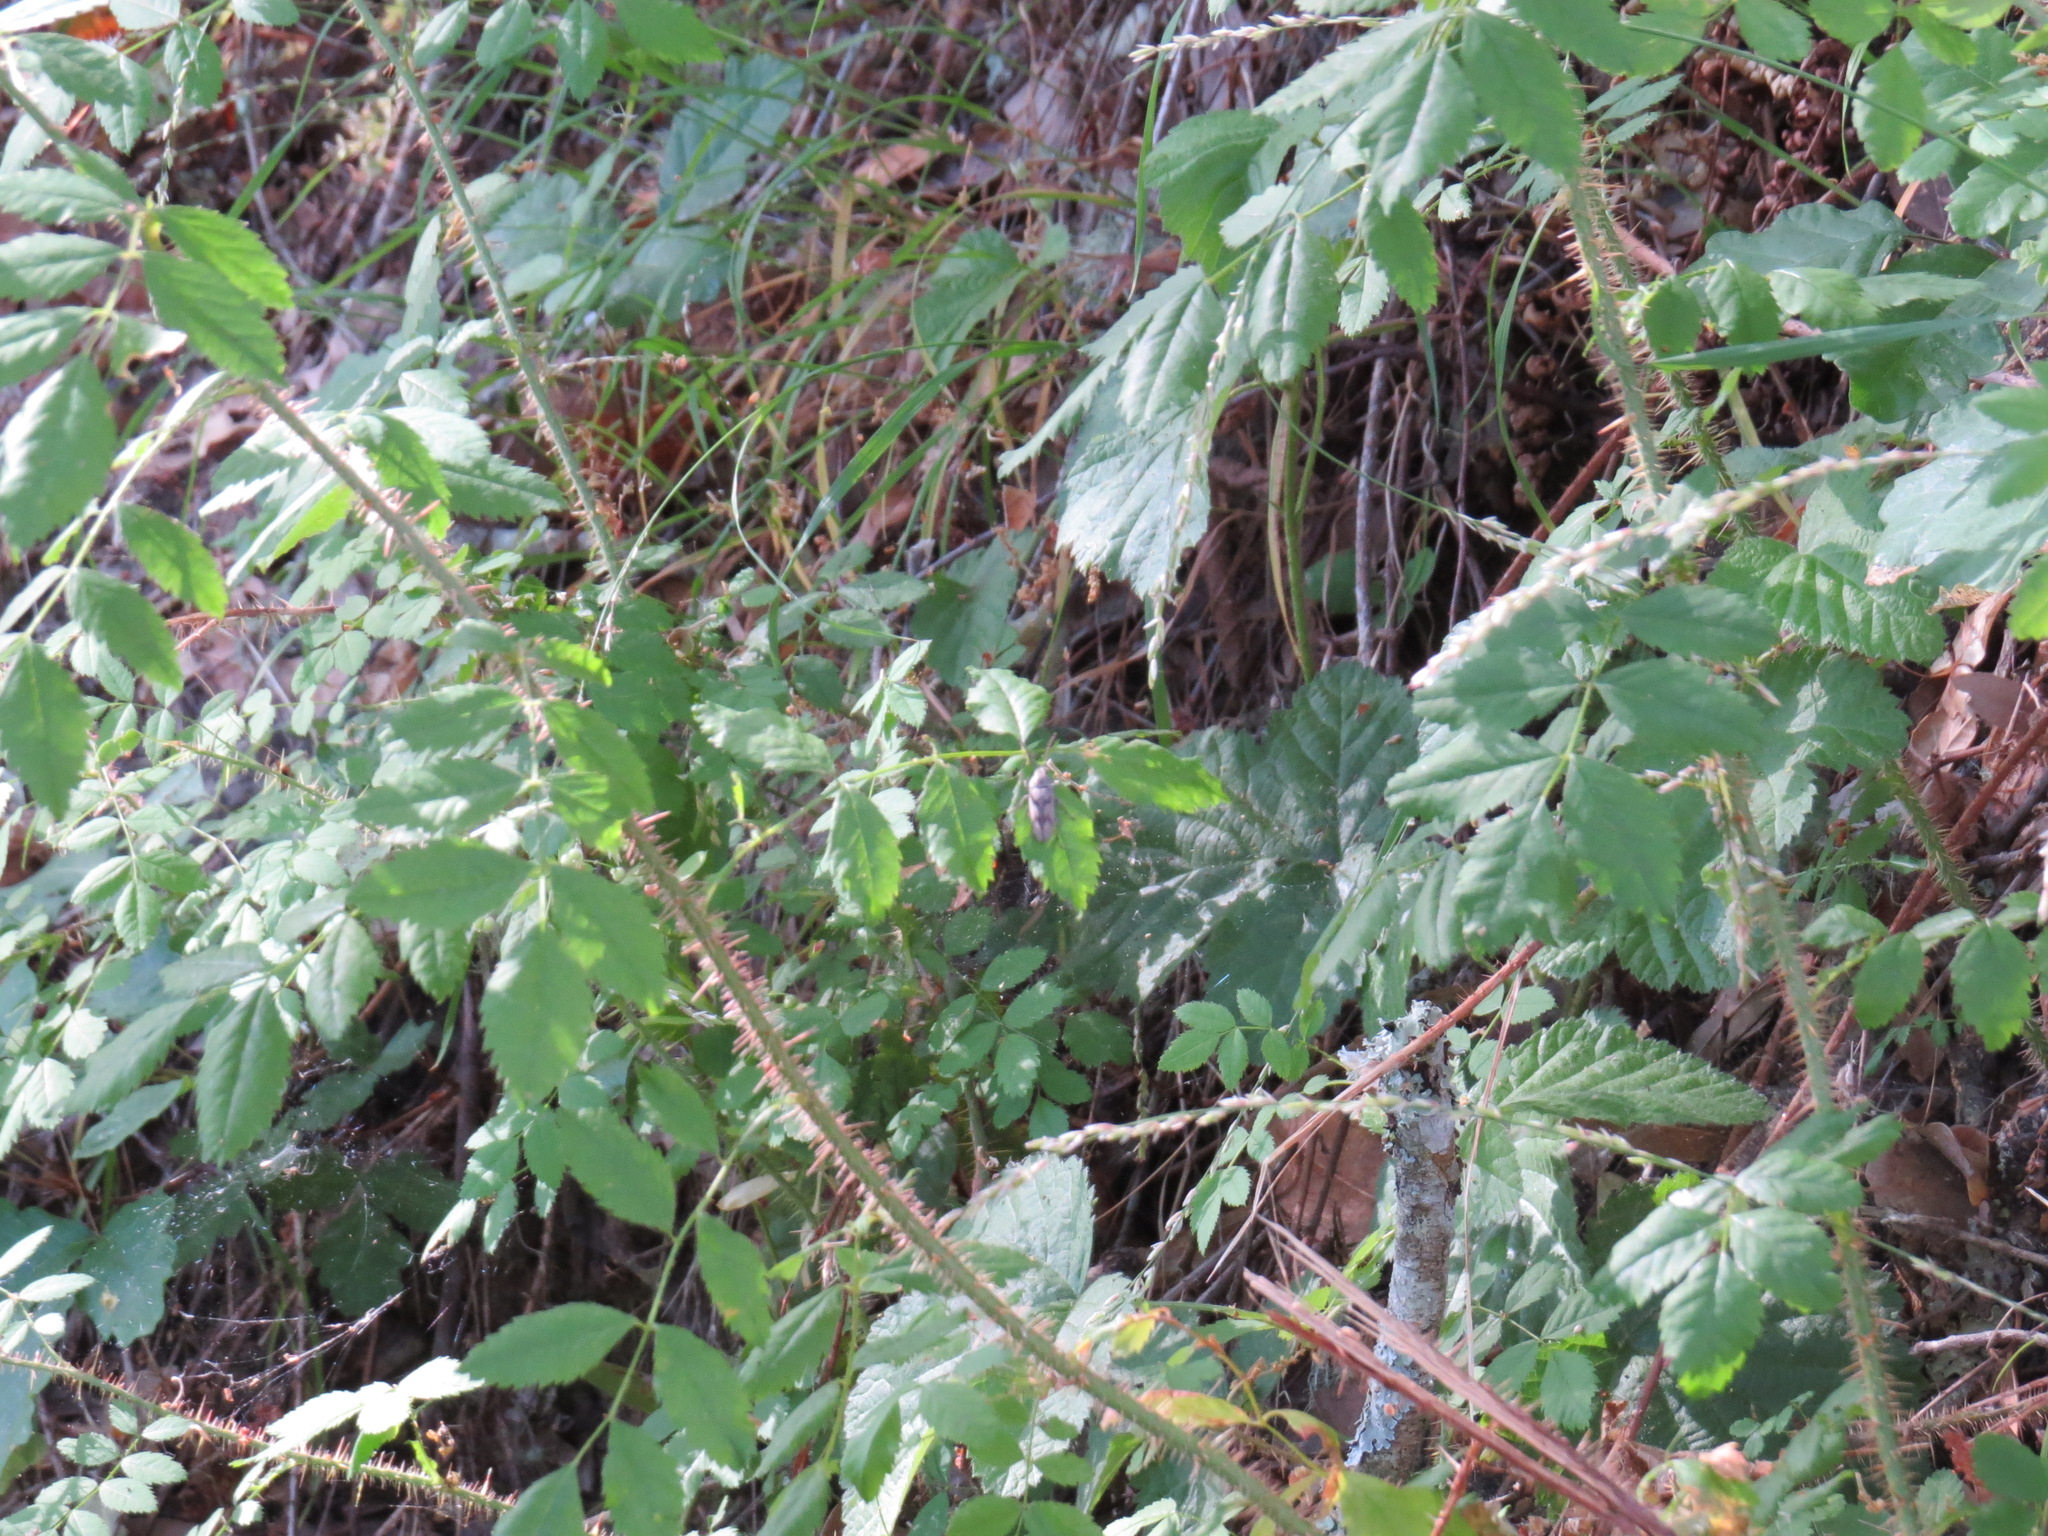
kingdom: Animalia
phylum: Arthropoda
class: Insecta
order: Coleoptera
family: Dascillidae
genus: Dascillus
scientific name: Dascillus davidsoni
